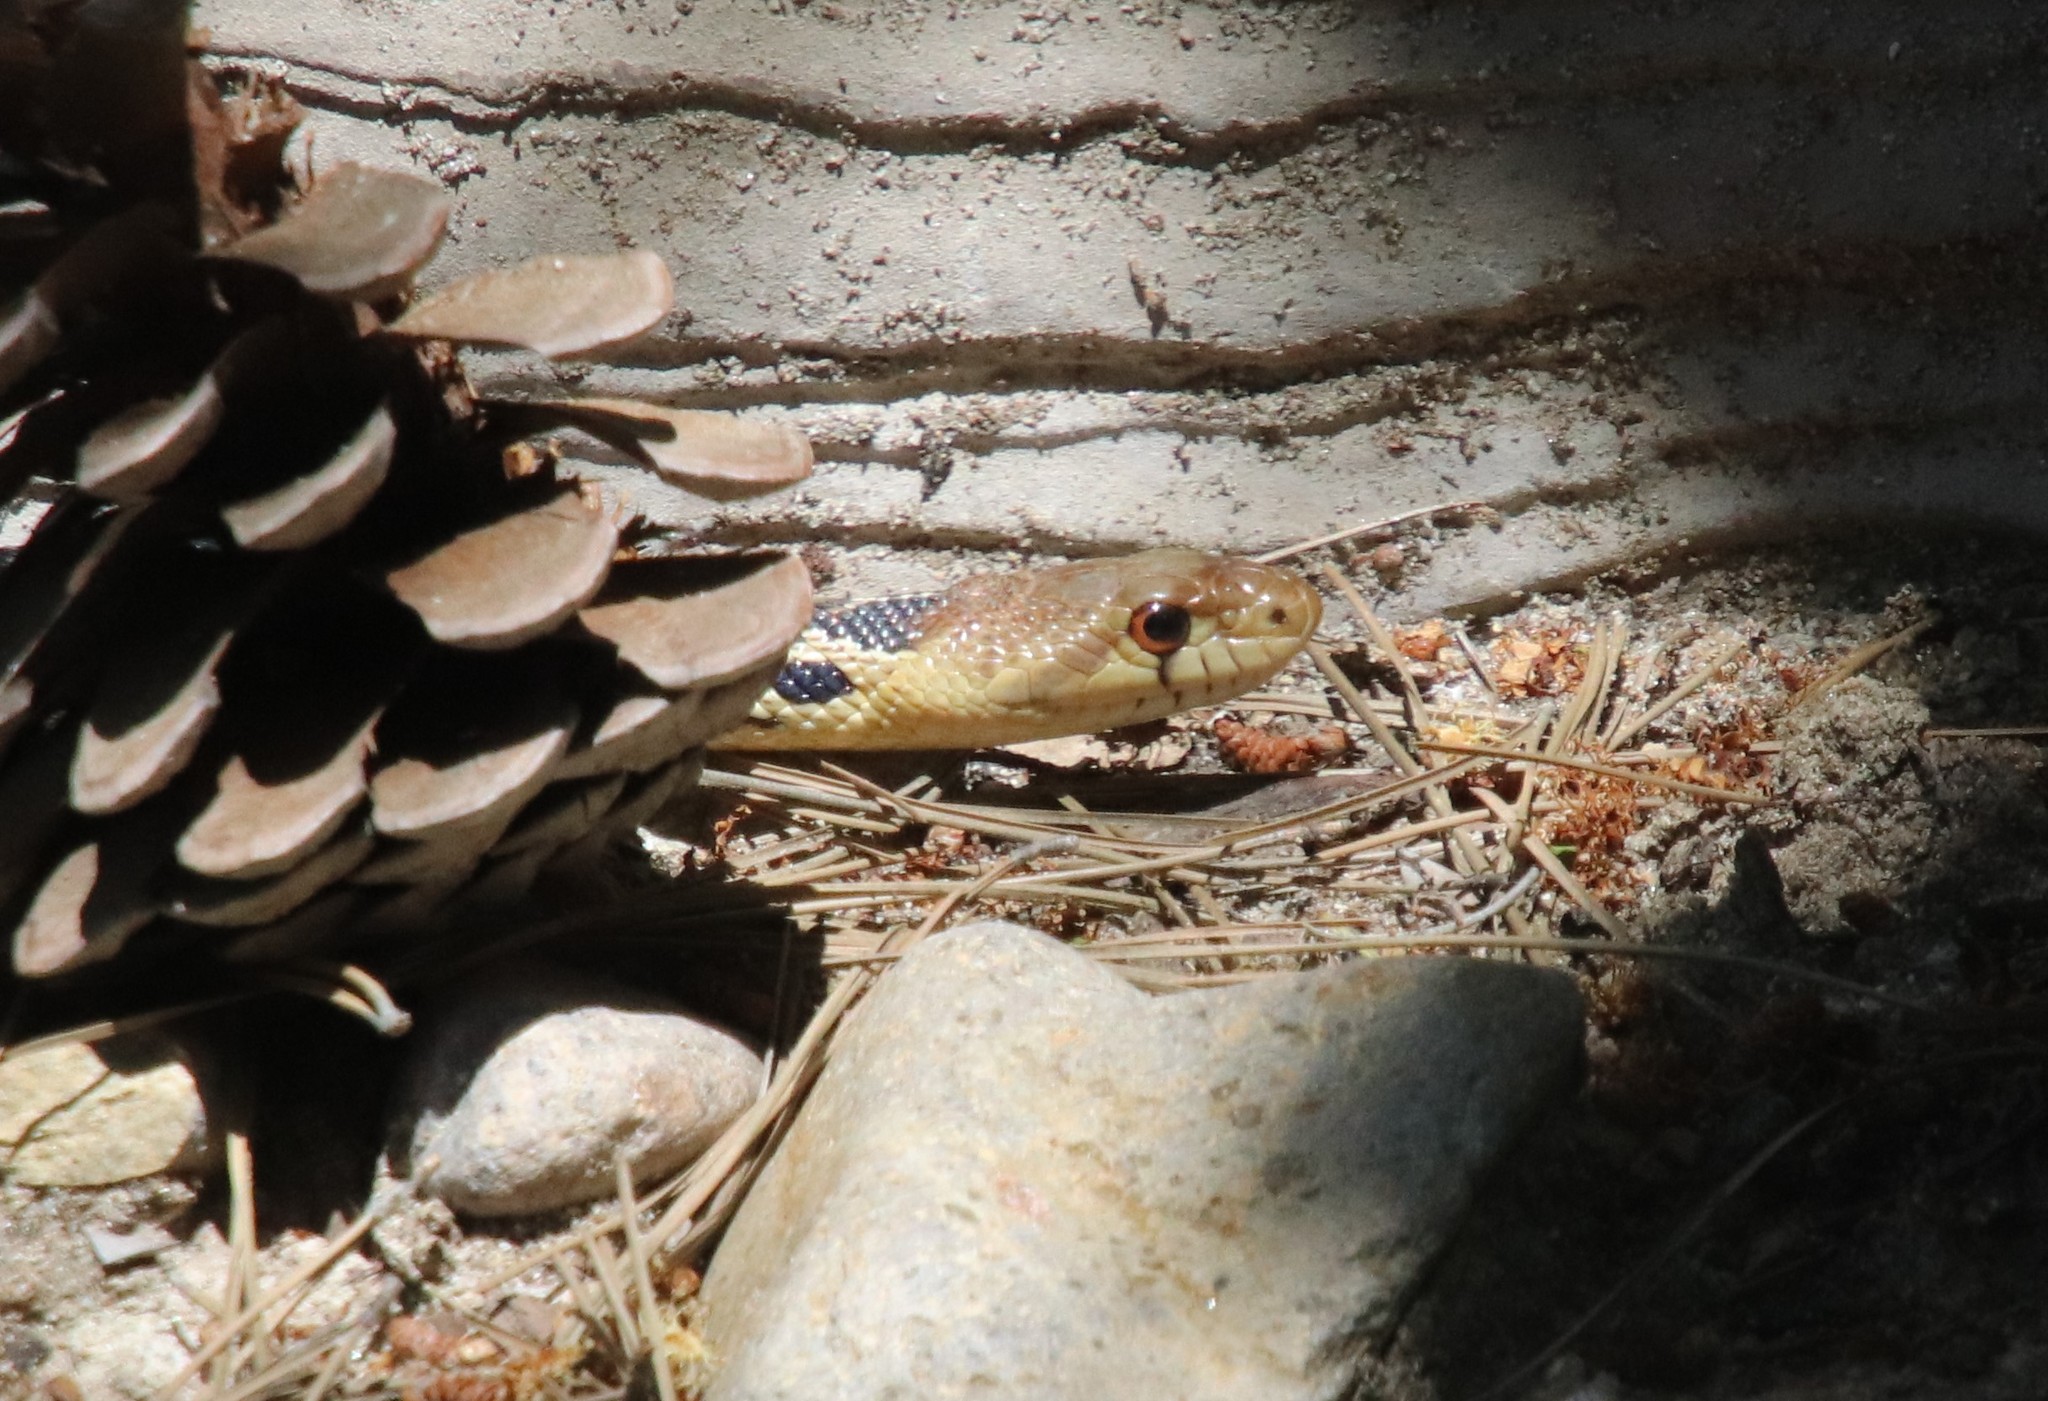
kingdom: Animalia
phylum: Chordata
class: Squamata
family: Colubridae
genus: Pituophis
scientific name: Pituophis catenifer
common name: Gopher snake
